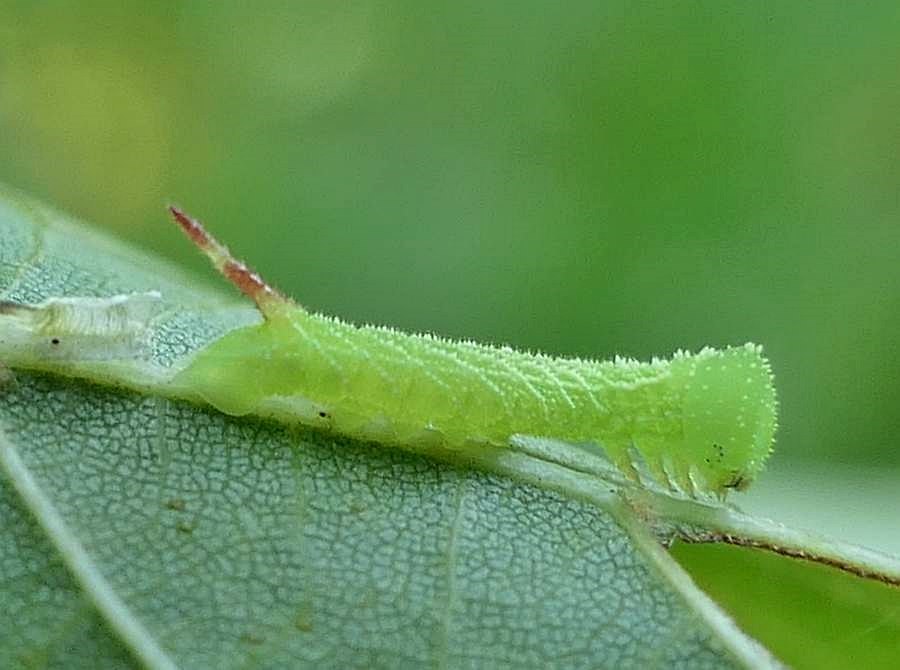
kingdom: Animalia
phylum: Arthropoda
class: Insecta
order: Lepidoptera
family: Sphingidae
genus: Paonias
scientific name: Paonias excaecata
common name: Blind-eyed sphinx
